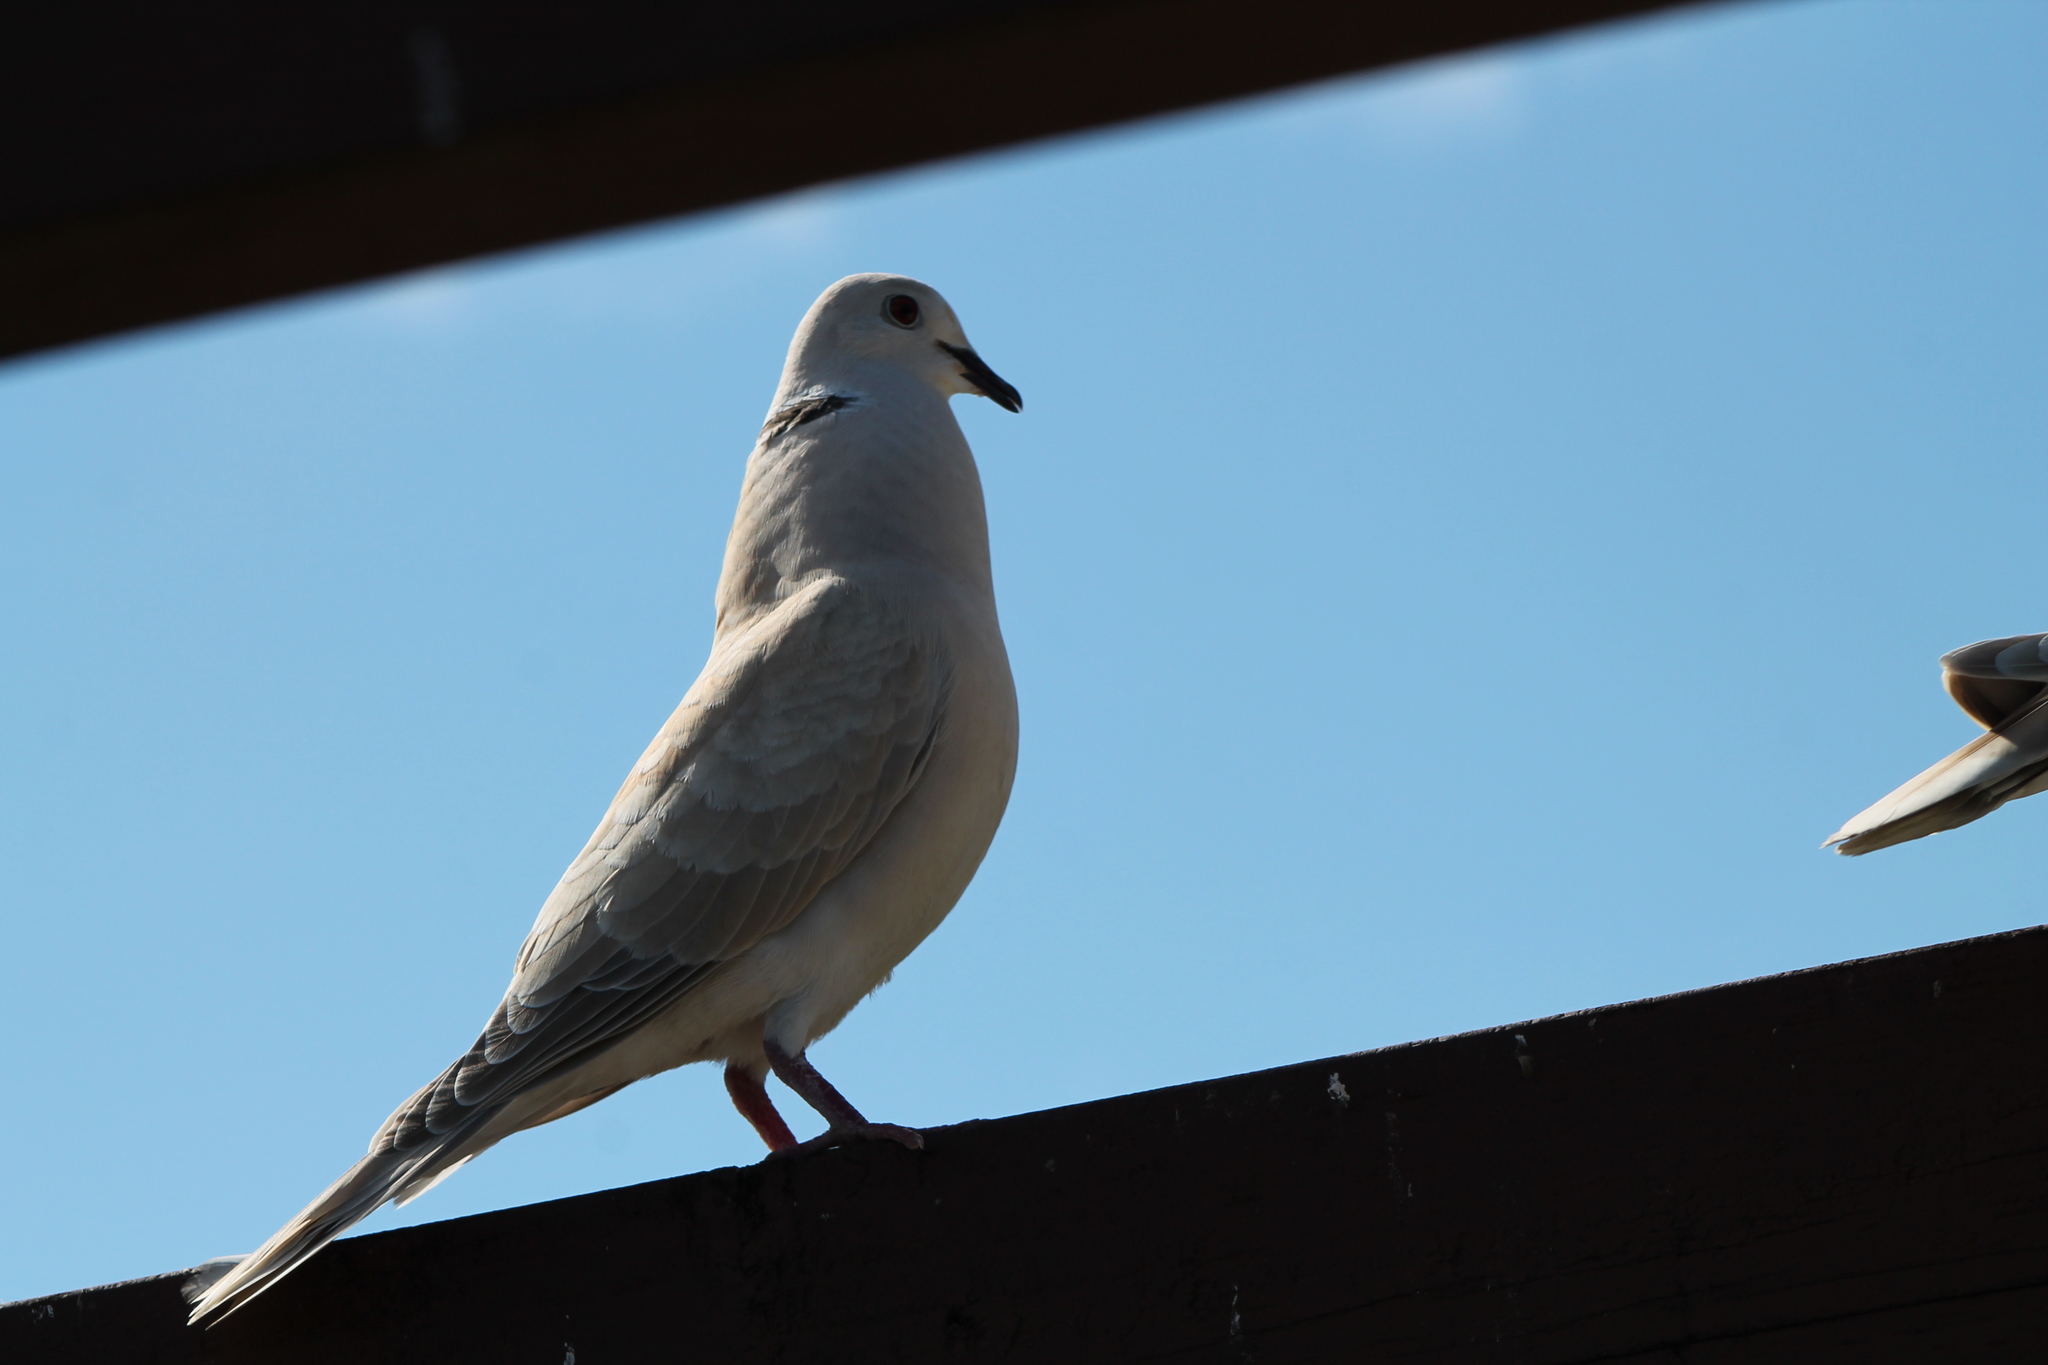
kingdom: Animalia
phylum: Chordata
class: Aves
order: Columbiformes
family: Columbidae
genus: Streptopelia
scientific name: Streptopelia roseogrisea
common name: African collared dove
